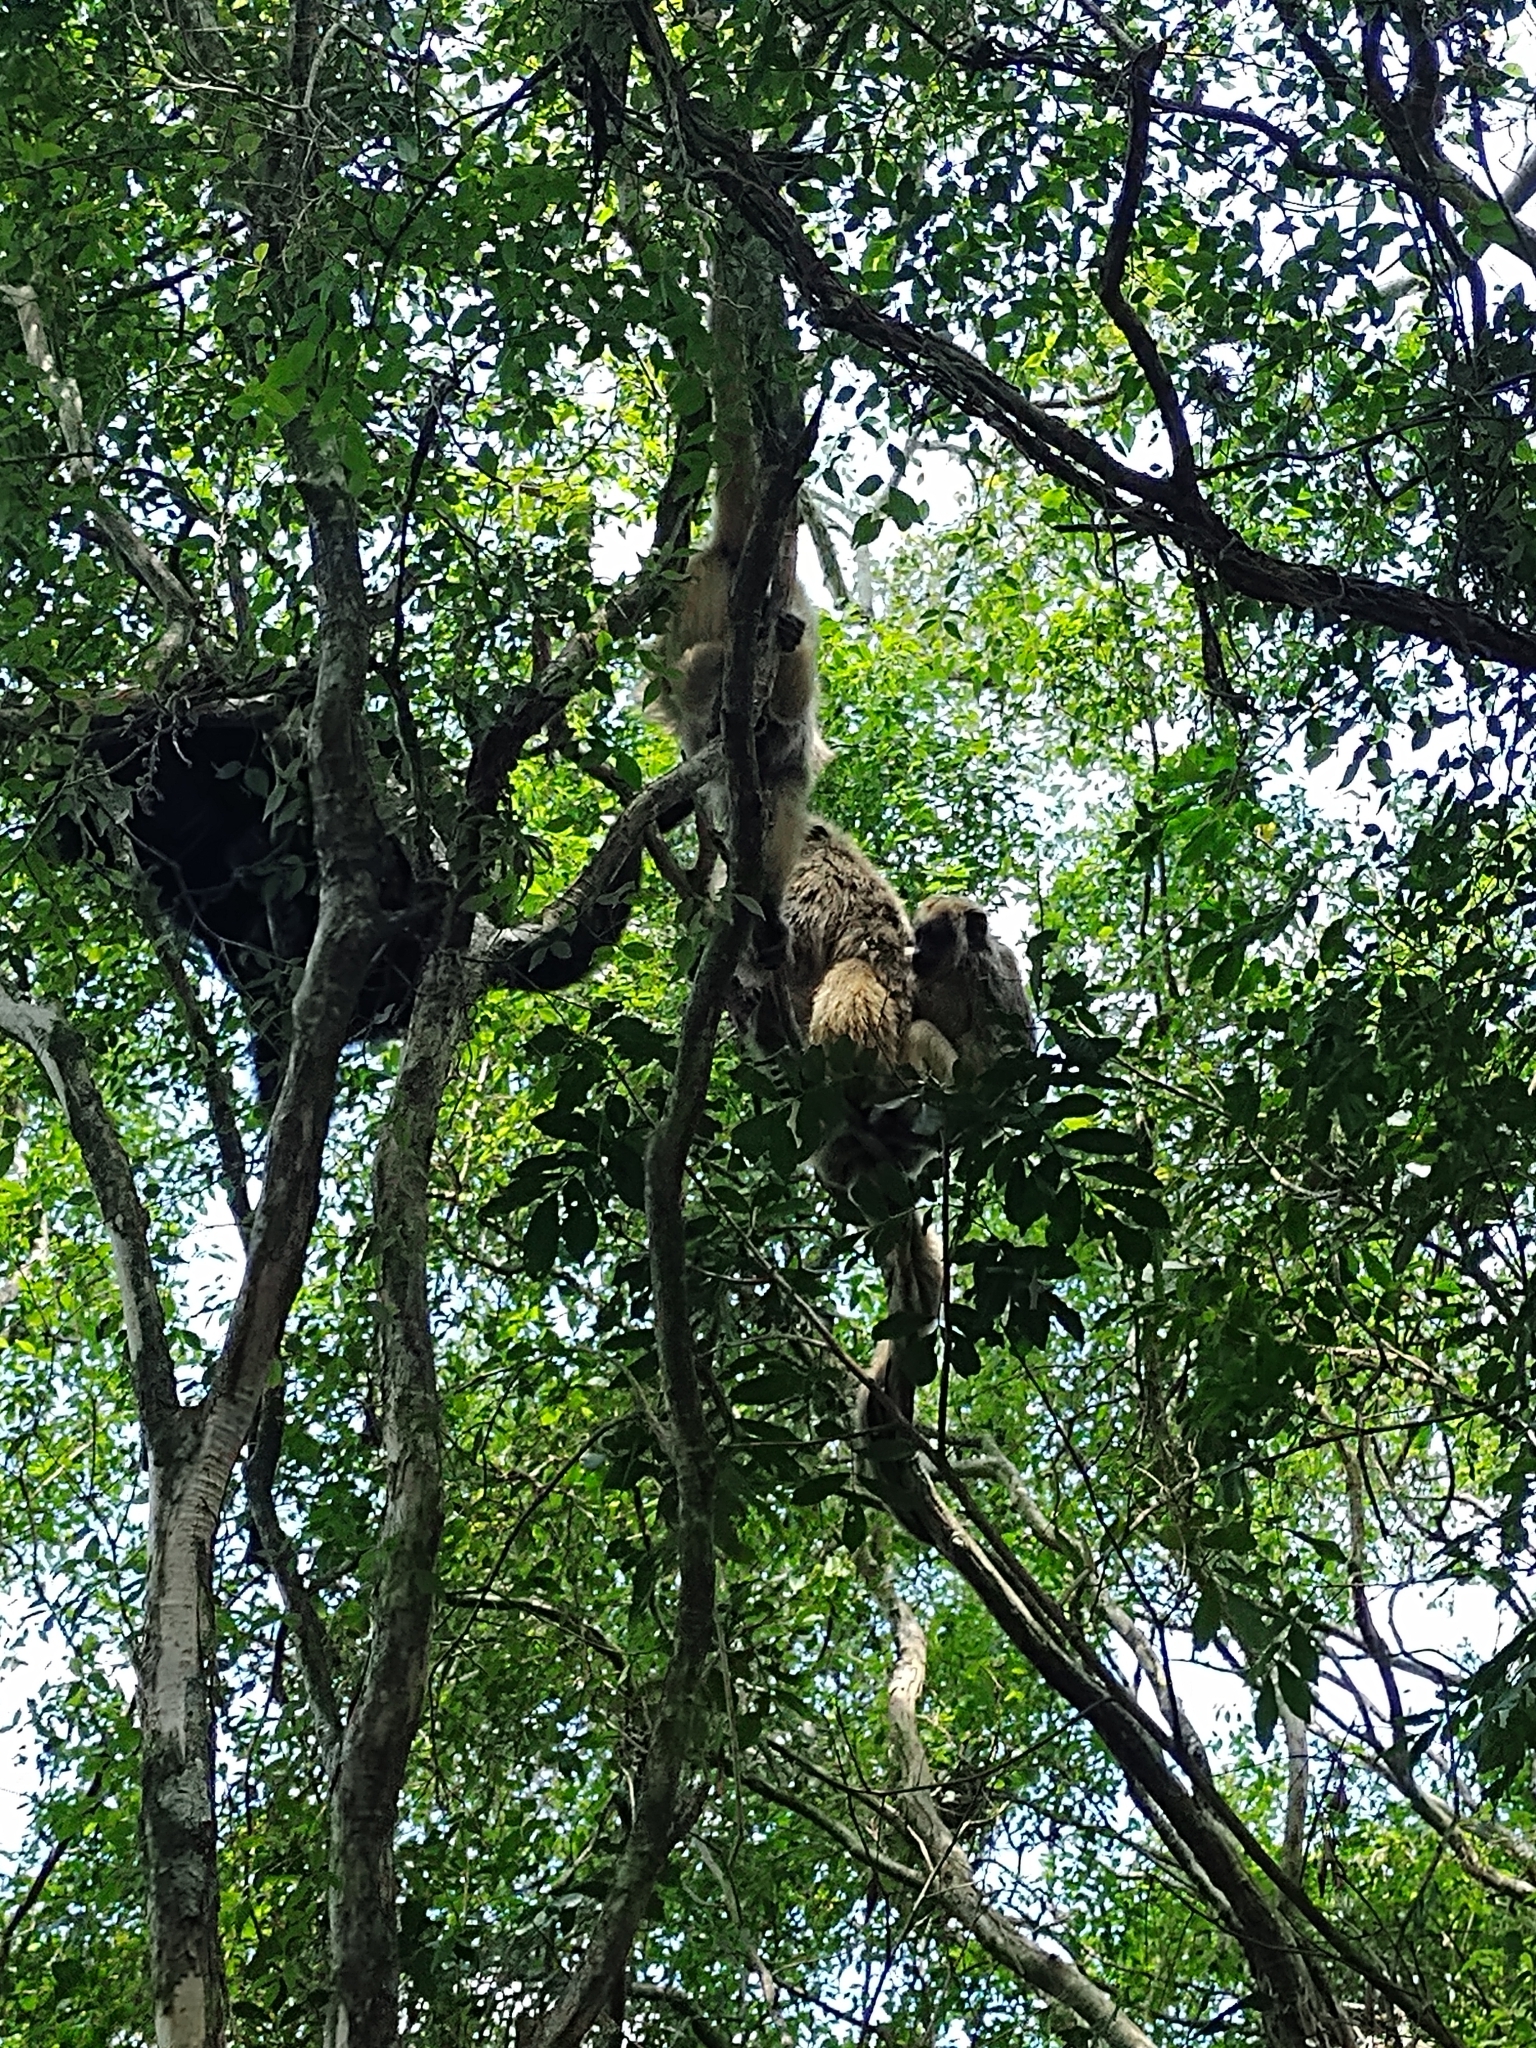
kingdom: Animalia
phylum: Chordata
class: Mammalia
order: Primates
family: Atelidae
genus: Alouatta
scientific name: Alouatta caraya
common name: Black howler
